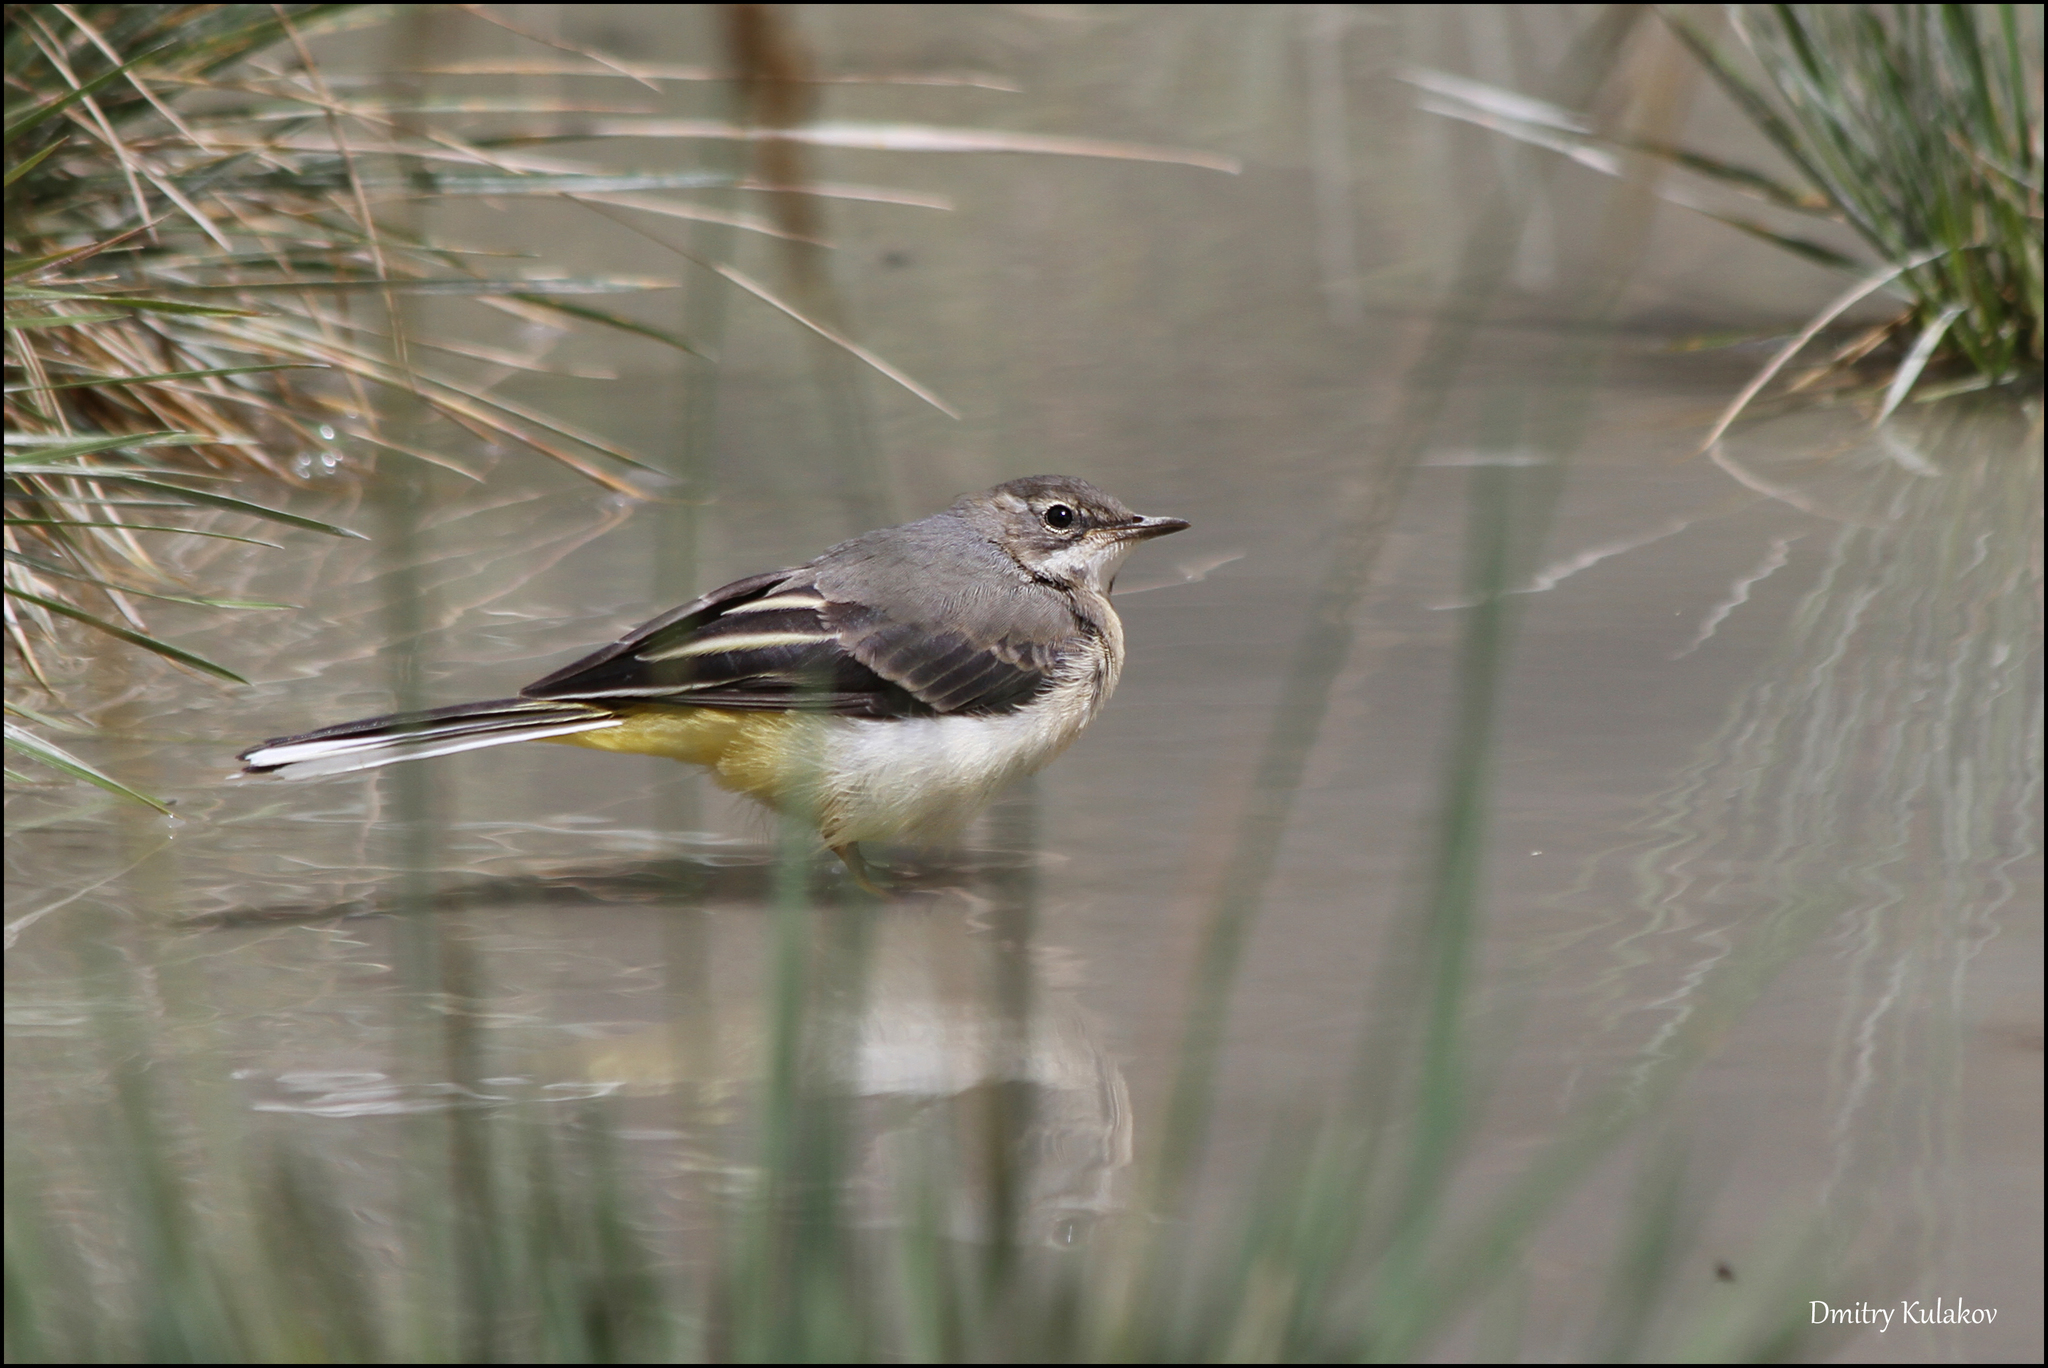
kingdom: Animalia
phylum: Chordata
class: Aves
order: Passeriformes
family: Motacillidae
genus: Motacilla
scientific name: Motacilla cinerea
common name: Grey wagtail
